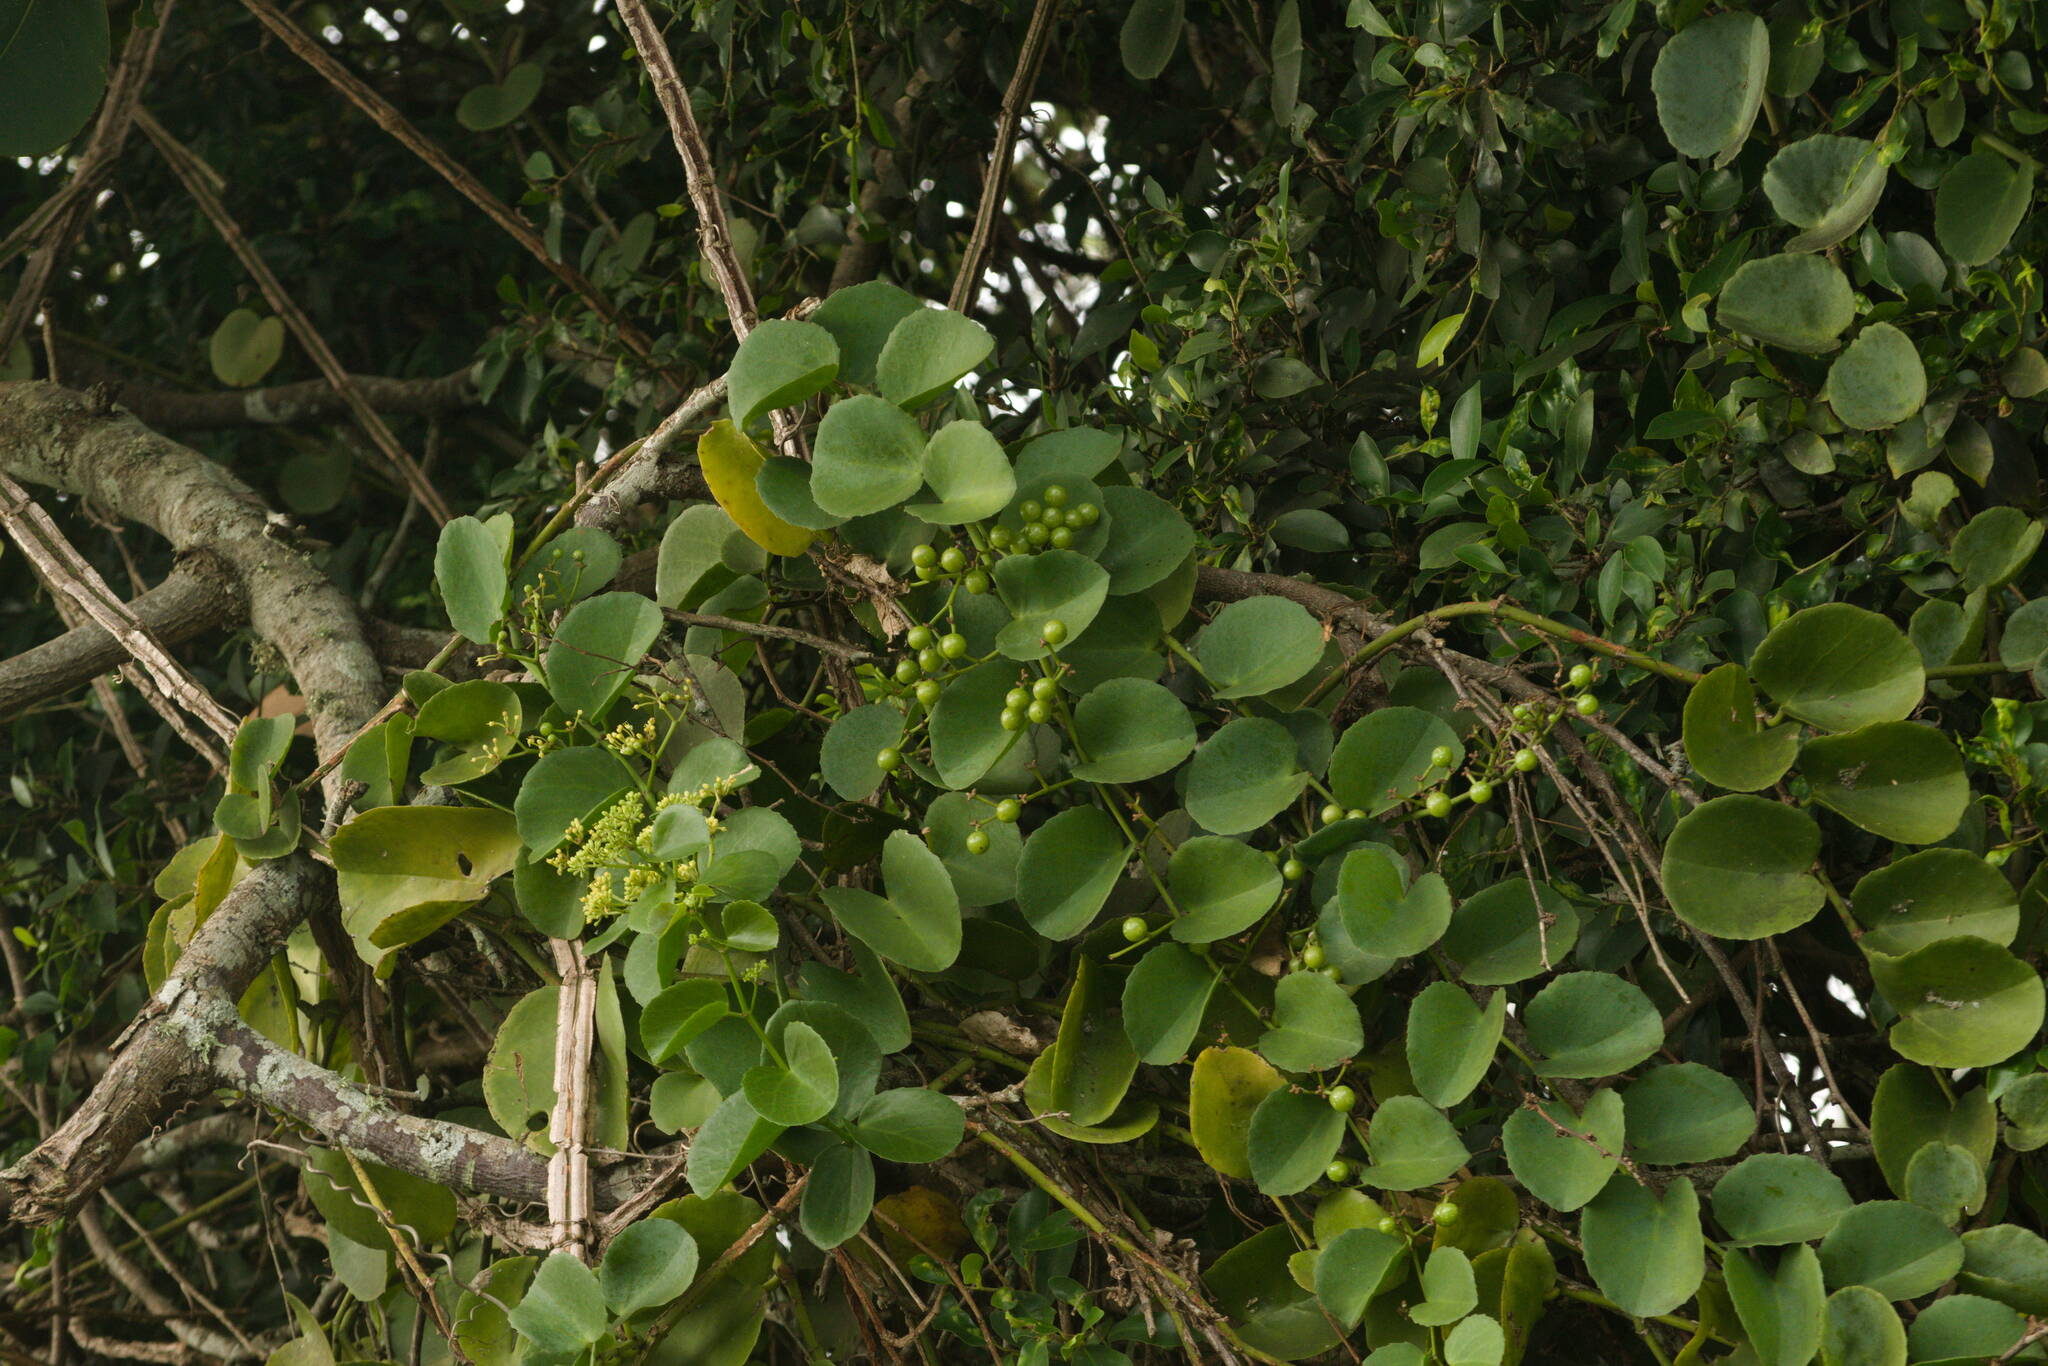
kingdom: Plantae
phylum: Tracheophyta
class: Magnoliopsida
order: Vitales
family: Vitaceae
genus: Cissus
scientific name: Cissus rotundifolia
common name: Arabian wax cissus
